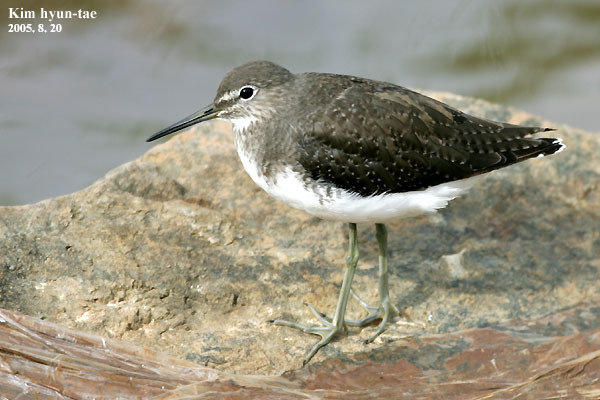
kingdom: Animalia
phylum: Chordata
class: Aves
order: Charadriiformes
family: Scolopacidae
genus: Tringa
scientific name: Tringa ochropus
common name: Green sandpiper
